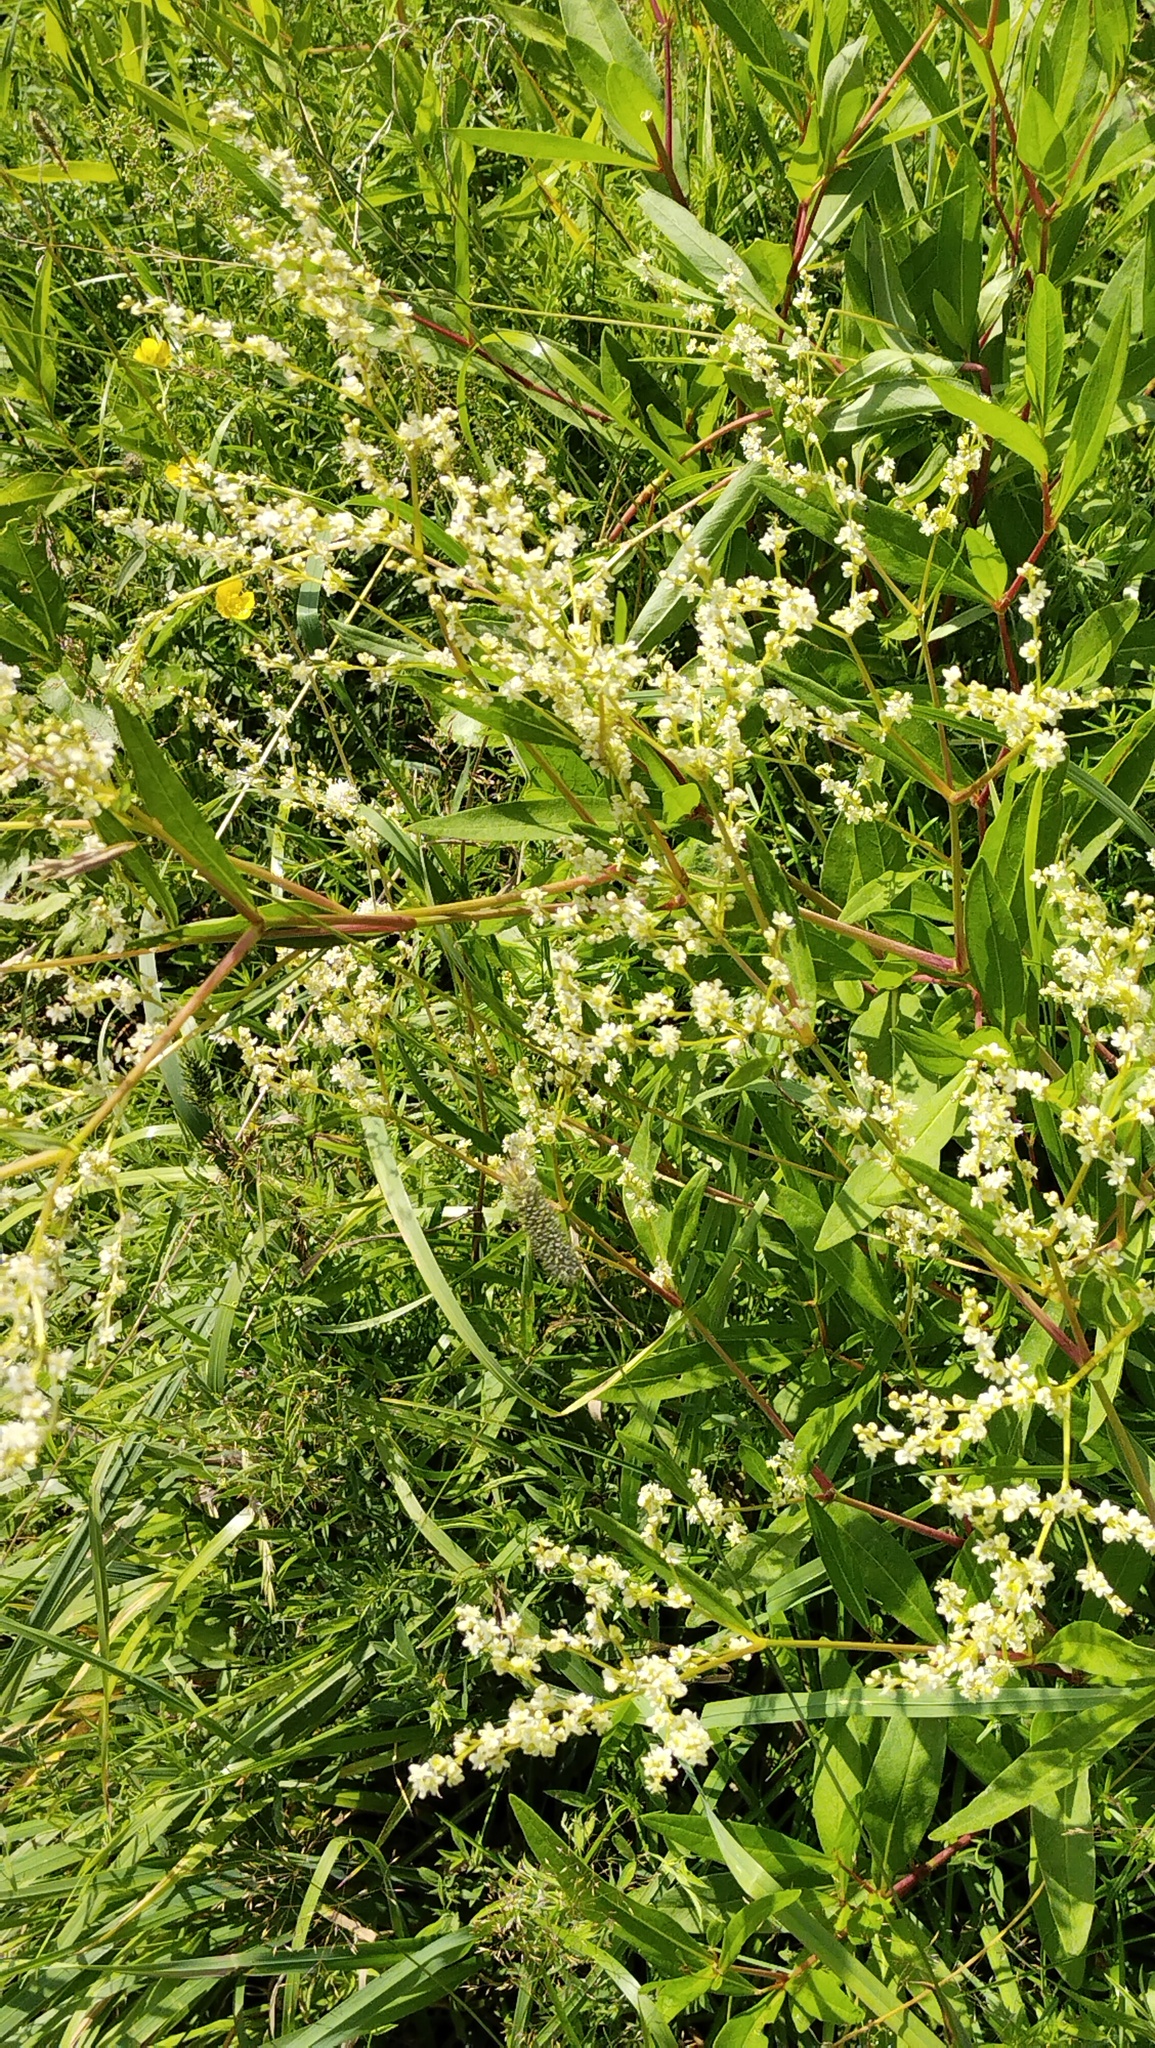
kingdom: Plantae
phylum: Tracheophyta
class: Magnoliopsida
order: Caryophyllales
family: Polygonaceae
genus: Koenigia
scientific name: Koenigia alpina
